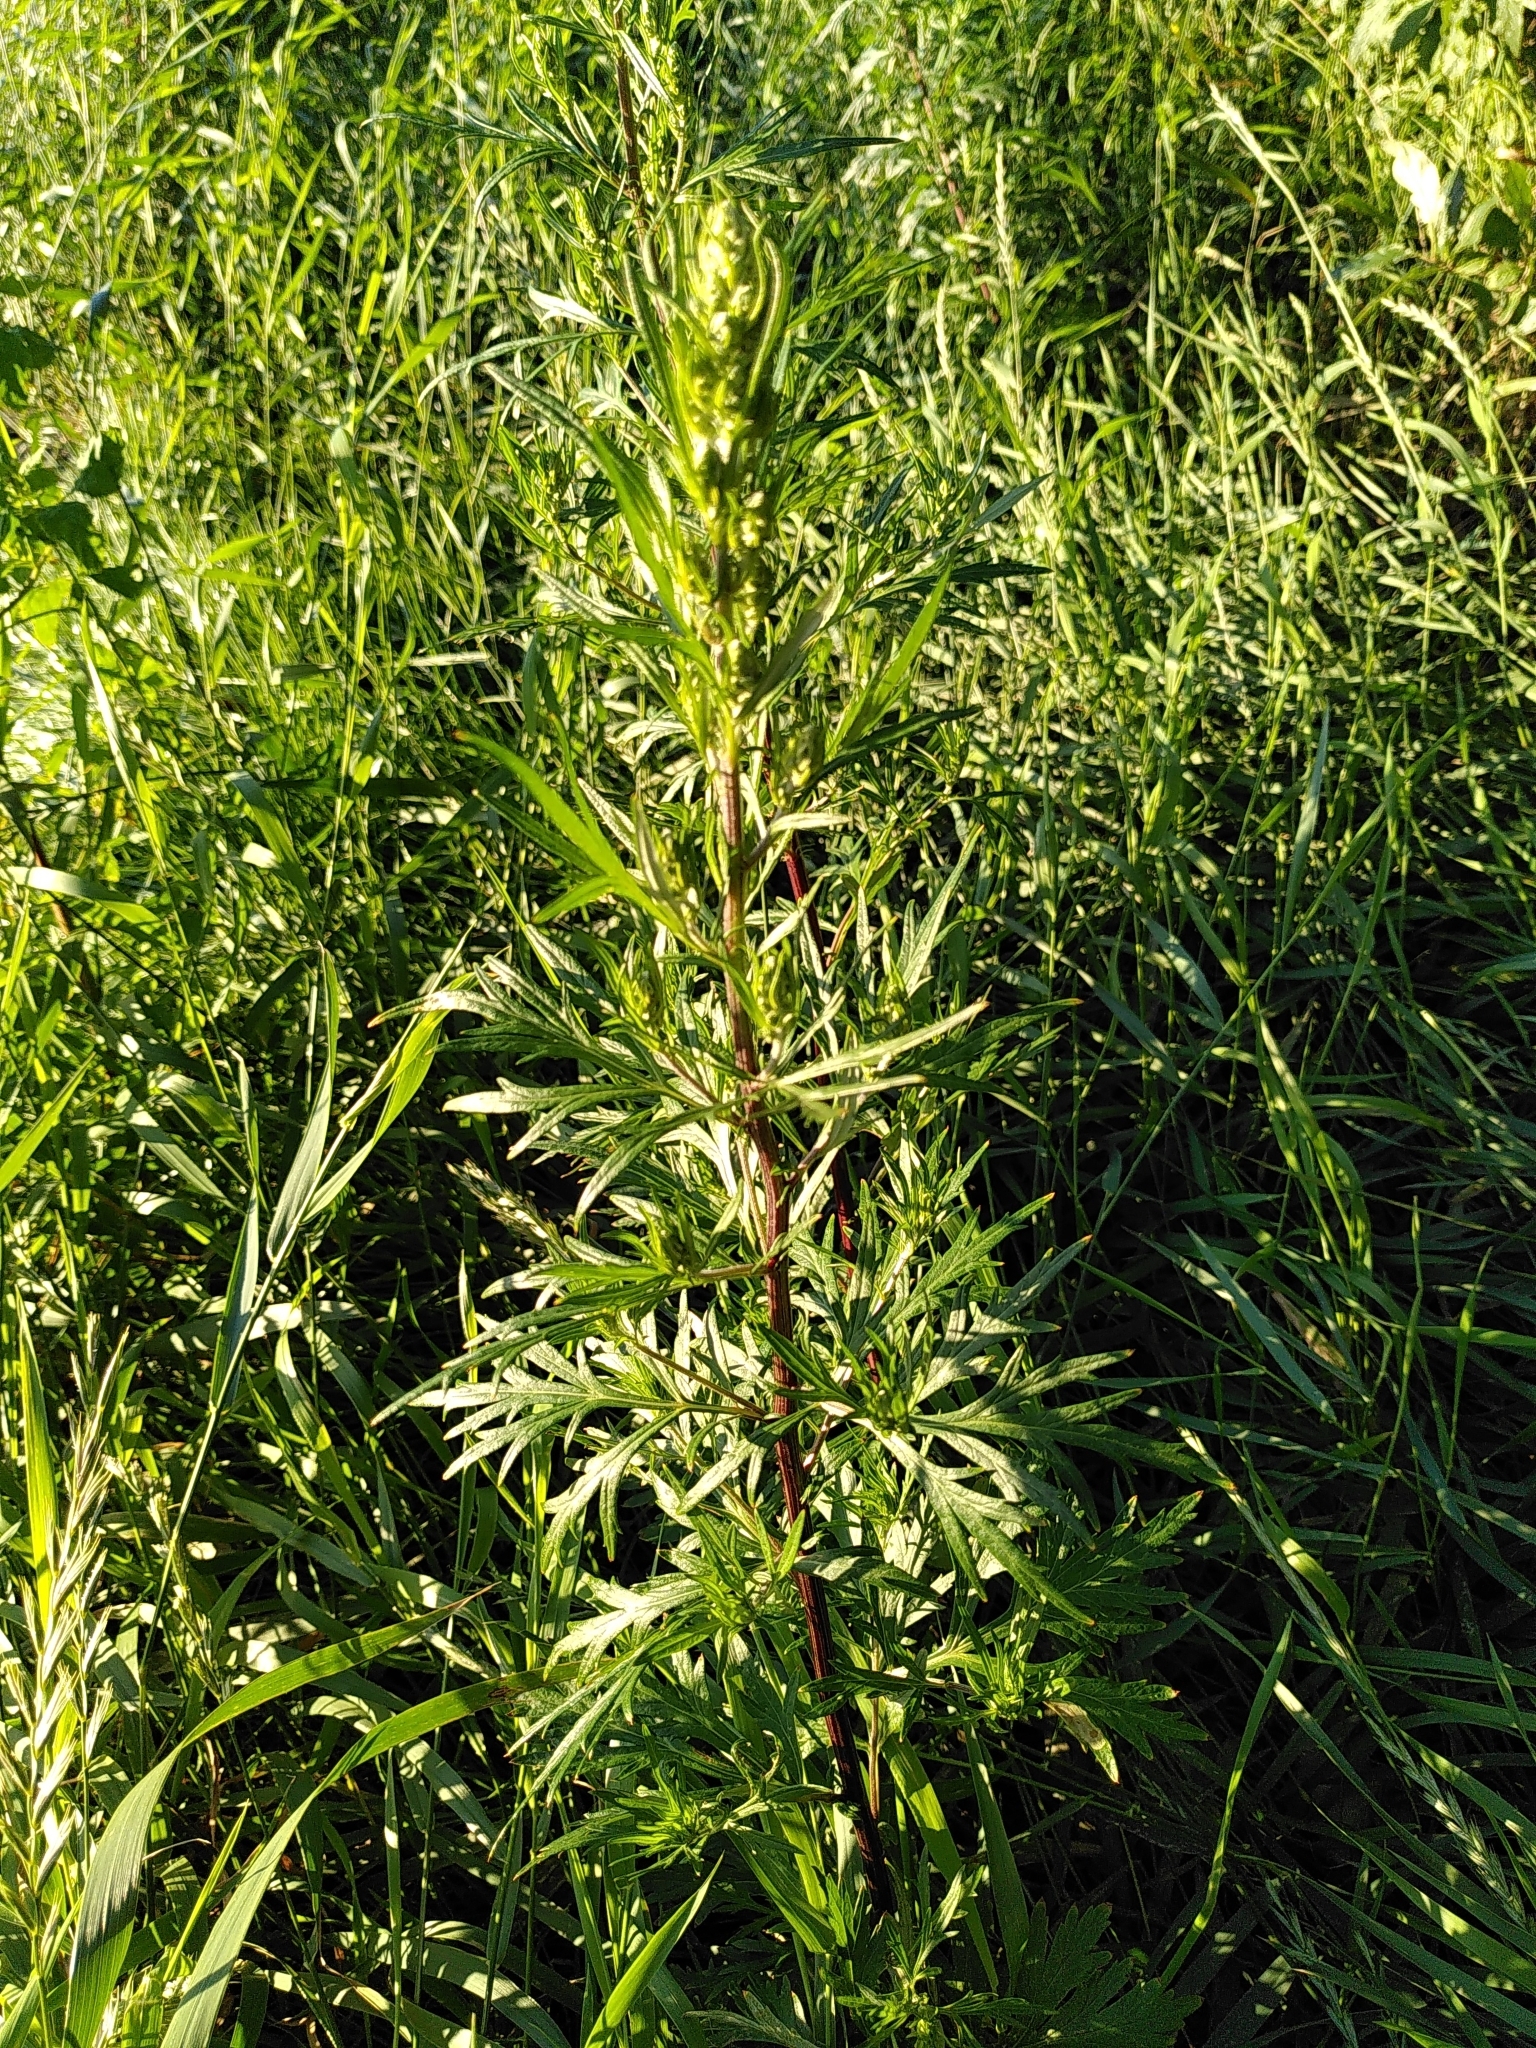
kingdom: Plantae
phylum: Tracheophyta
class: Magnoliopsida
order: Asterales
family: Asteraceae
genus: Artemisia
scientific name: Artemisia vulgaris
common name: Mugwort
